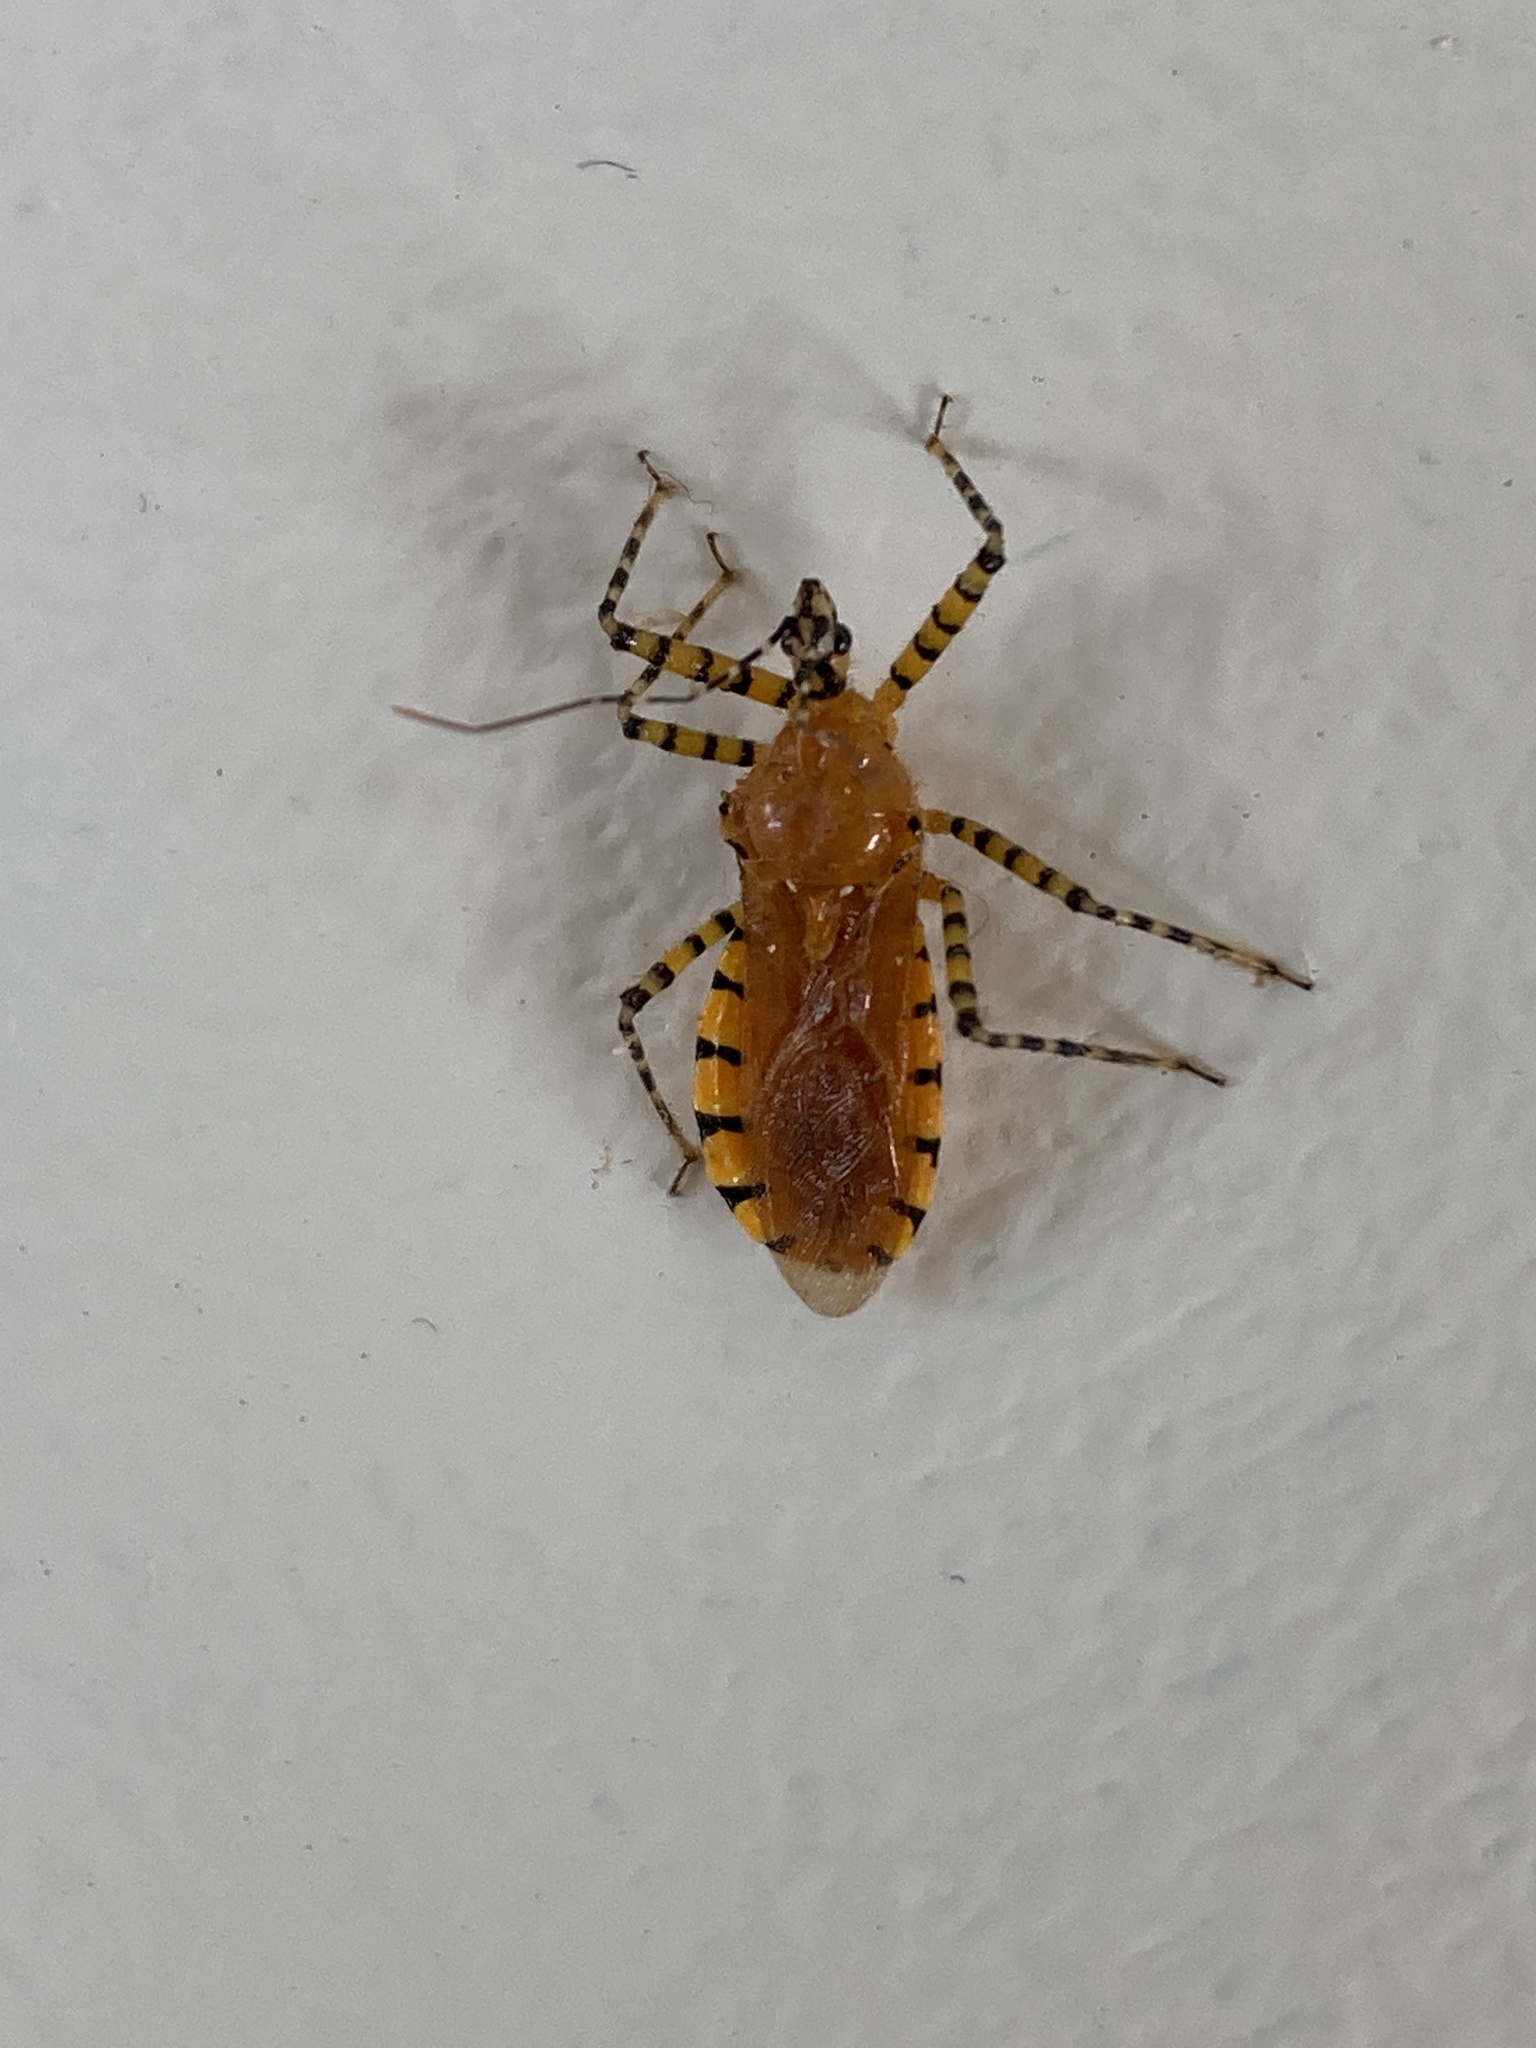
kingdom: Animalia
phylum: Arthropoda
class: Insecta
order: Hemiptera
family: Reduviidae
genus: Pselliopus
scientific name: Pselliopus barberi
